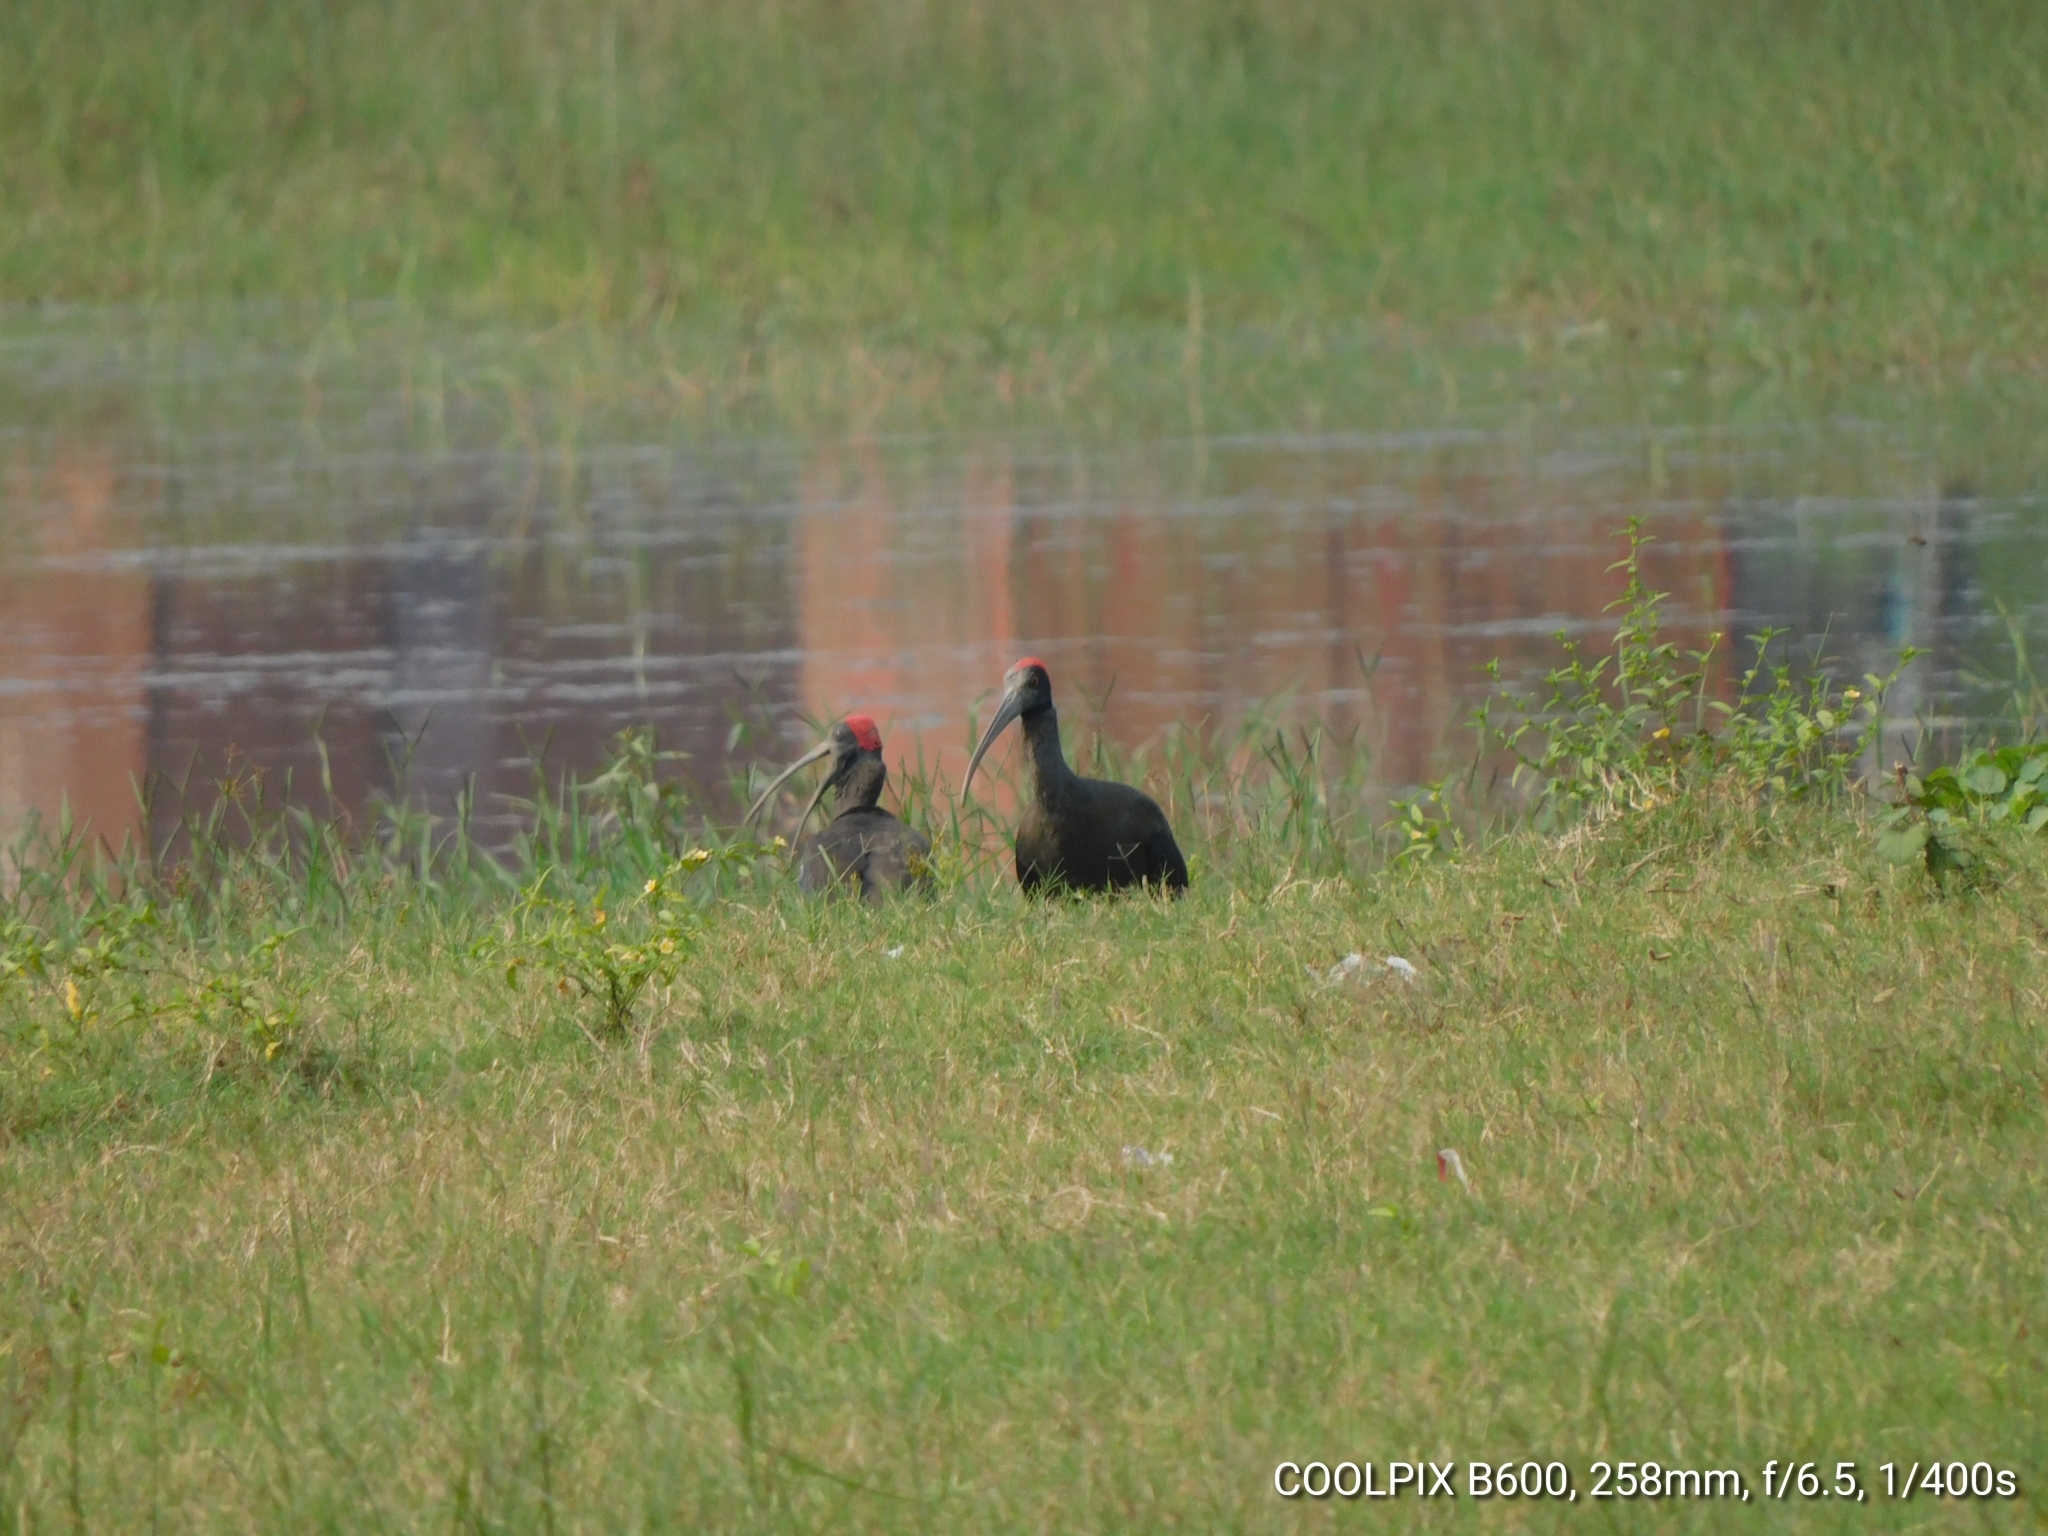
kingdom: Animalia
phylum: Chordata
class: Aves
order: Pelecaniformes
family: Threskiornithidae
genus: Pseudibis
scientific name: Pseudibis papillosa
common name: Red-naped ibis
